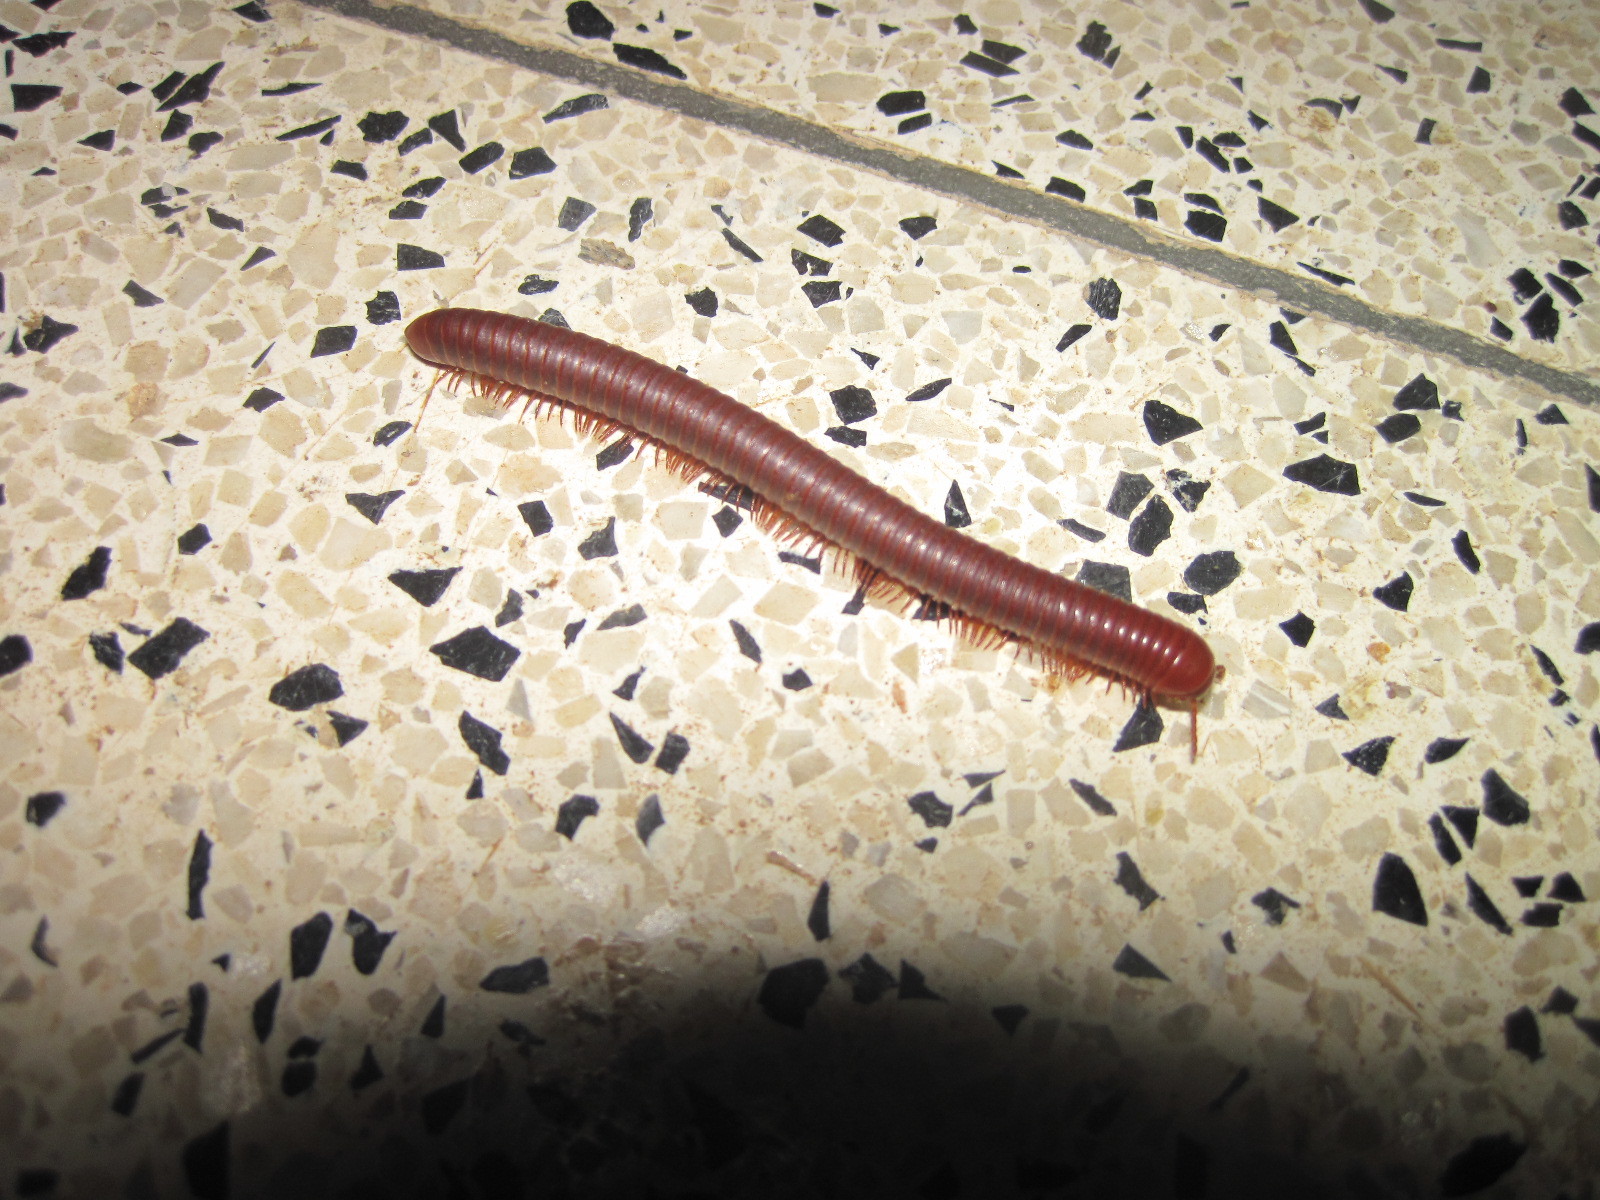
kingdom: Animalia
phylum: Arthropoda
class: Diplopoda
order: Spirobolida
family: Pachybolidae
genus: Trigoniulus
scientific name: Trigoniulus corallinus
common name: Millipede
